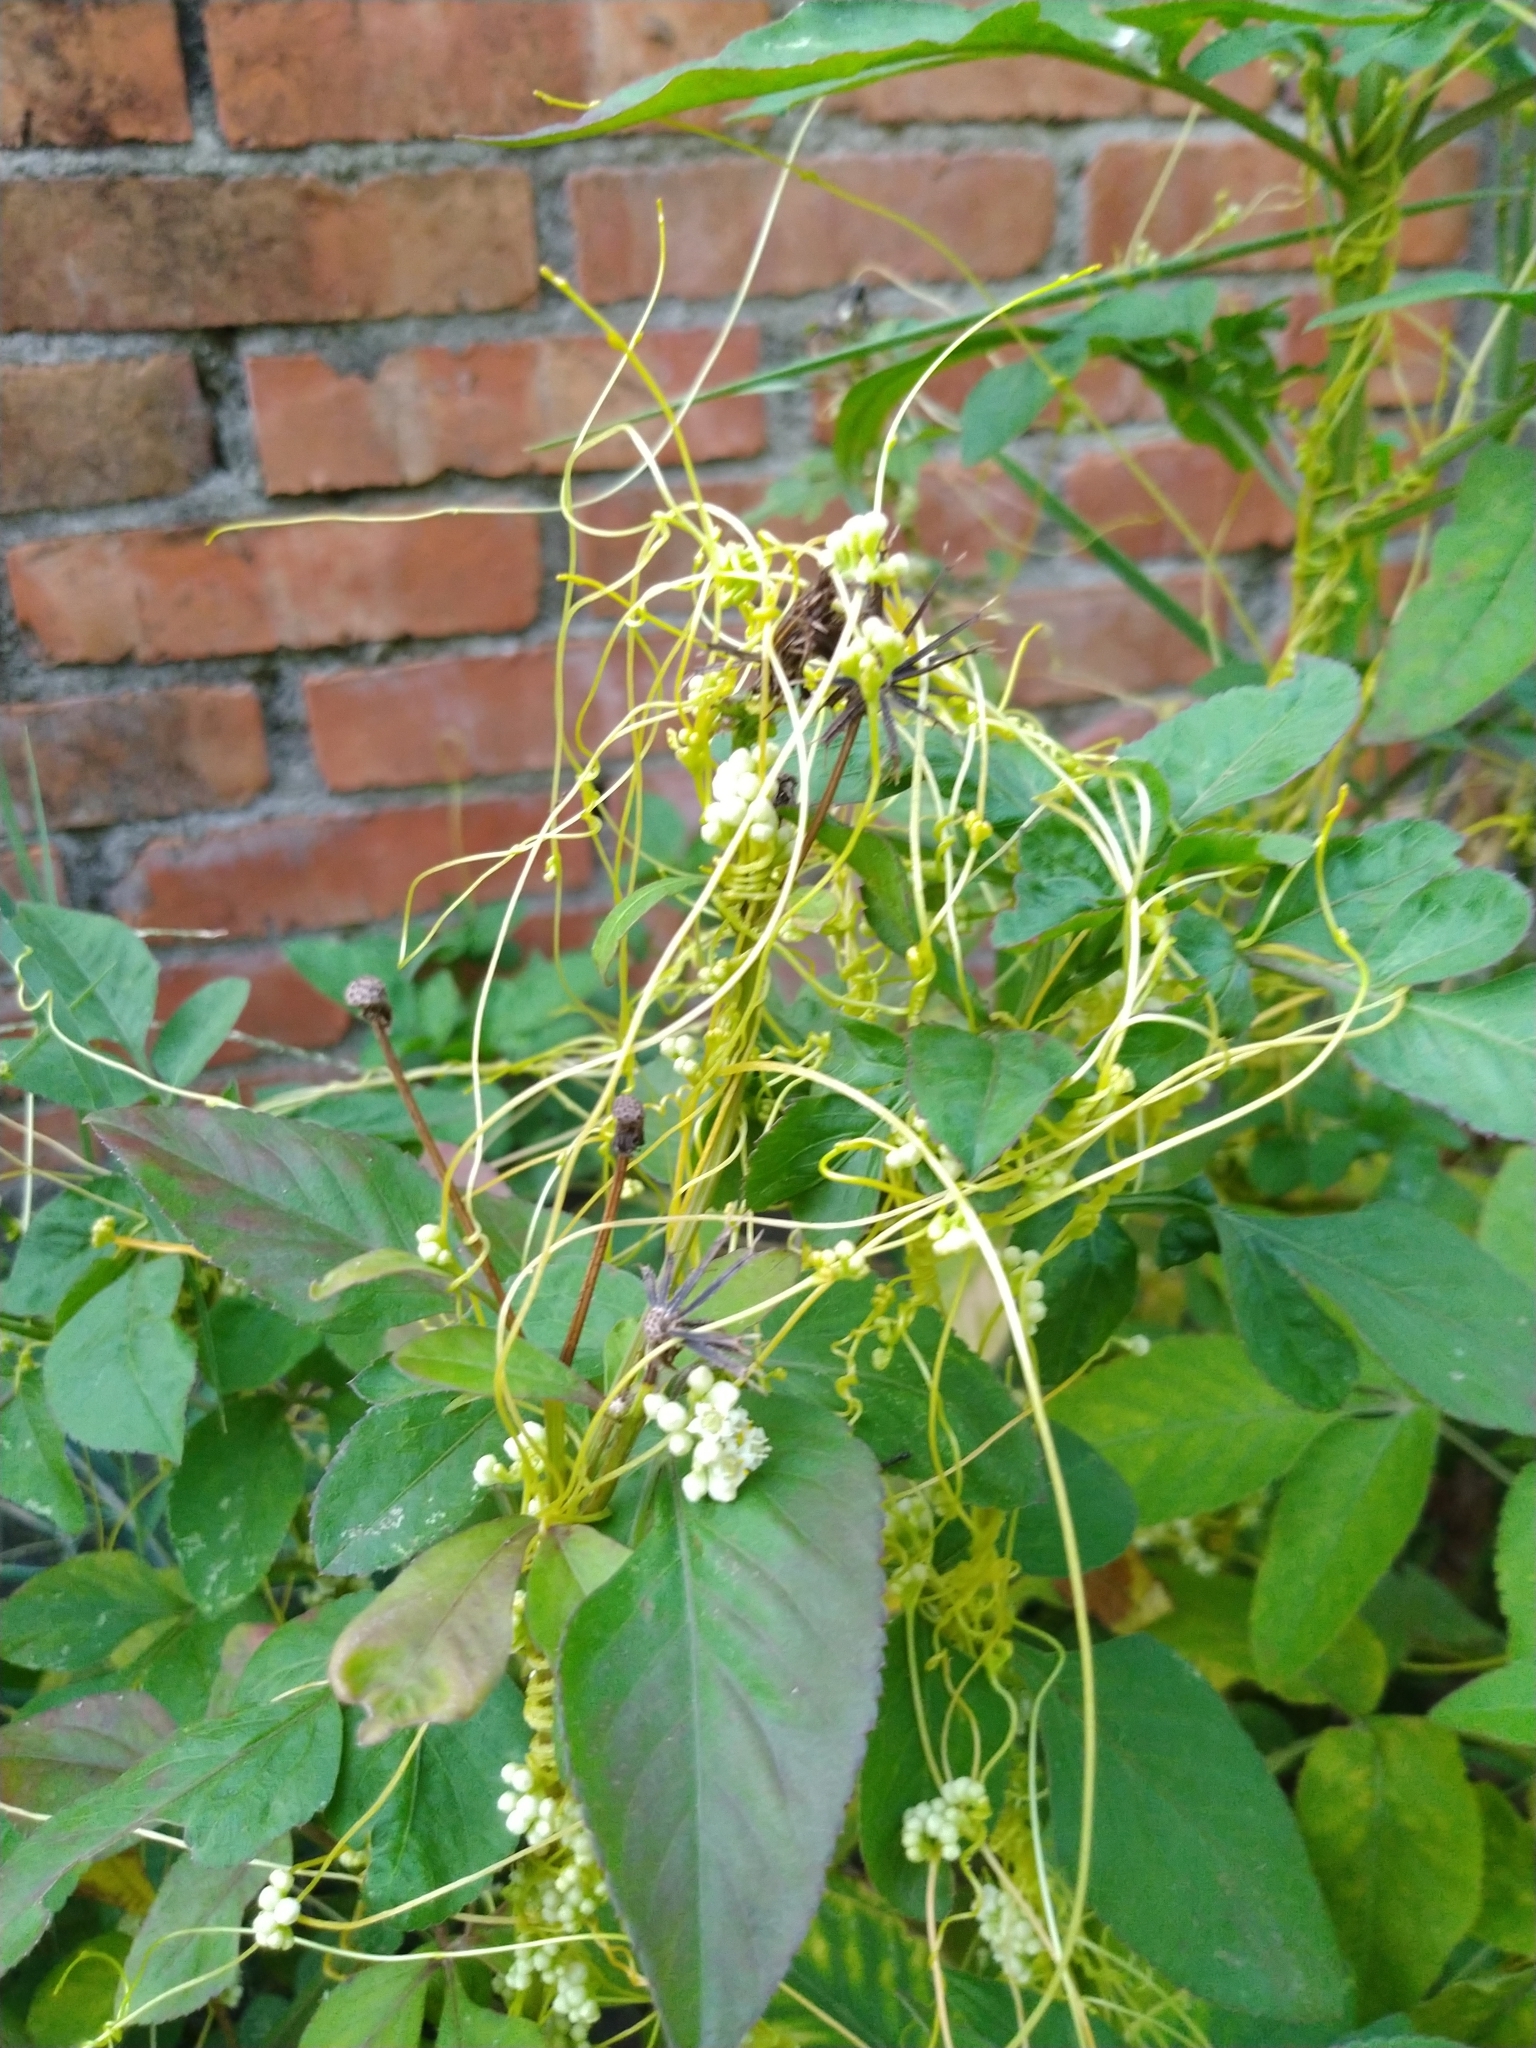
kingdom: Plantae
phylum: Tracheophyta
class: Magnoliopsida
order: Solanales
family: Convolvulaceae
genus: Cuscuta
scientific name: Cuscuta campestris
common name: Yellow dodder
